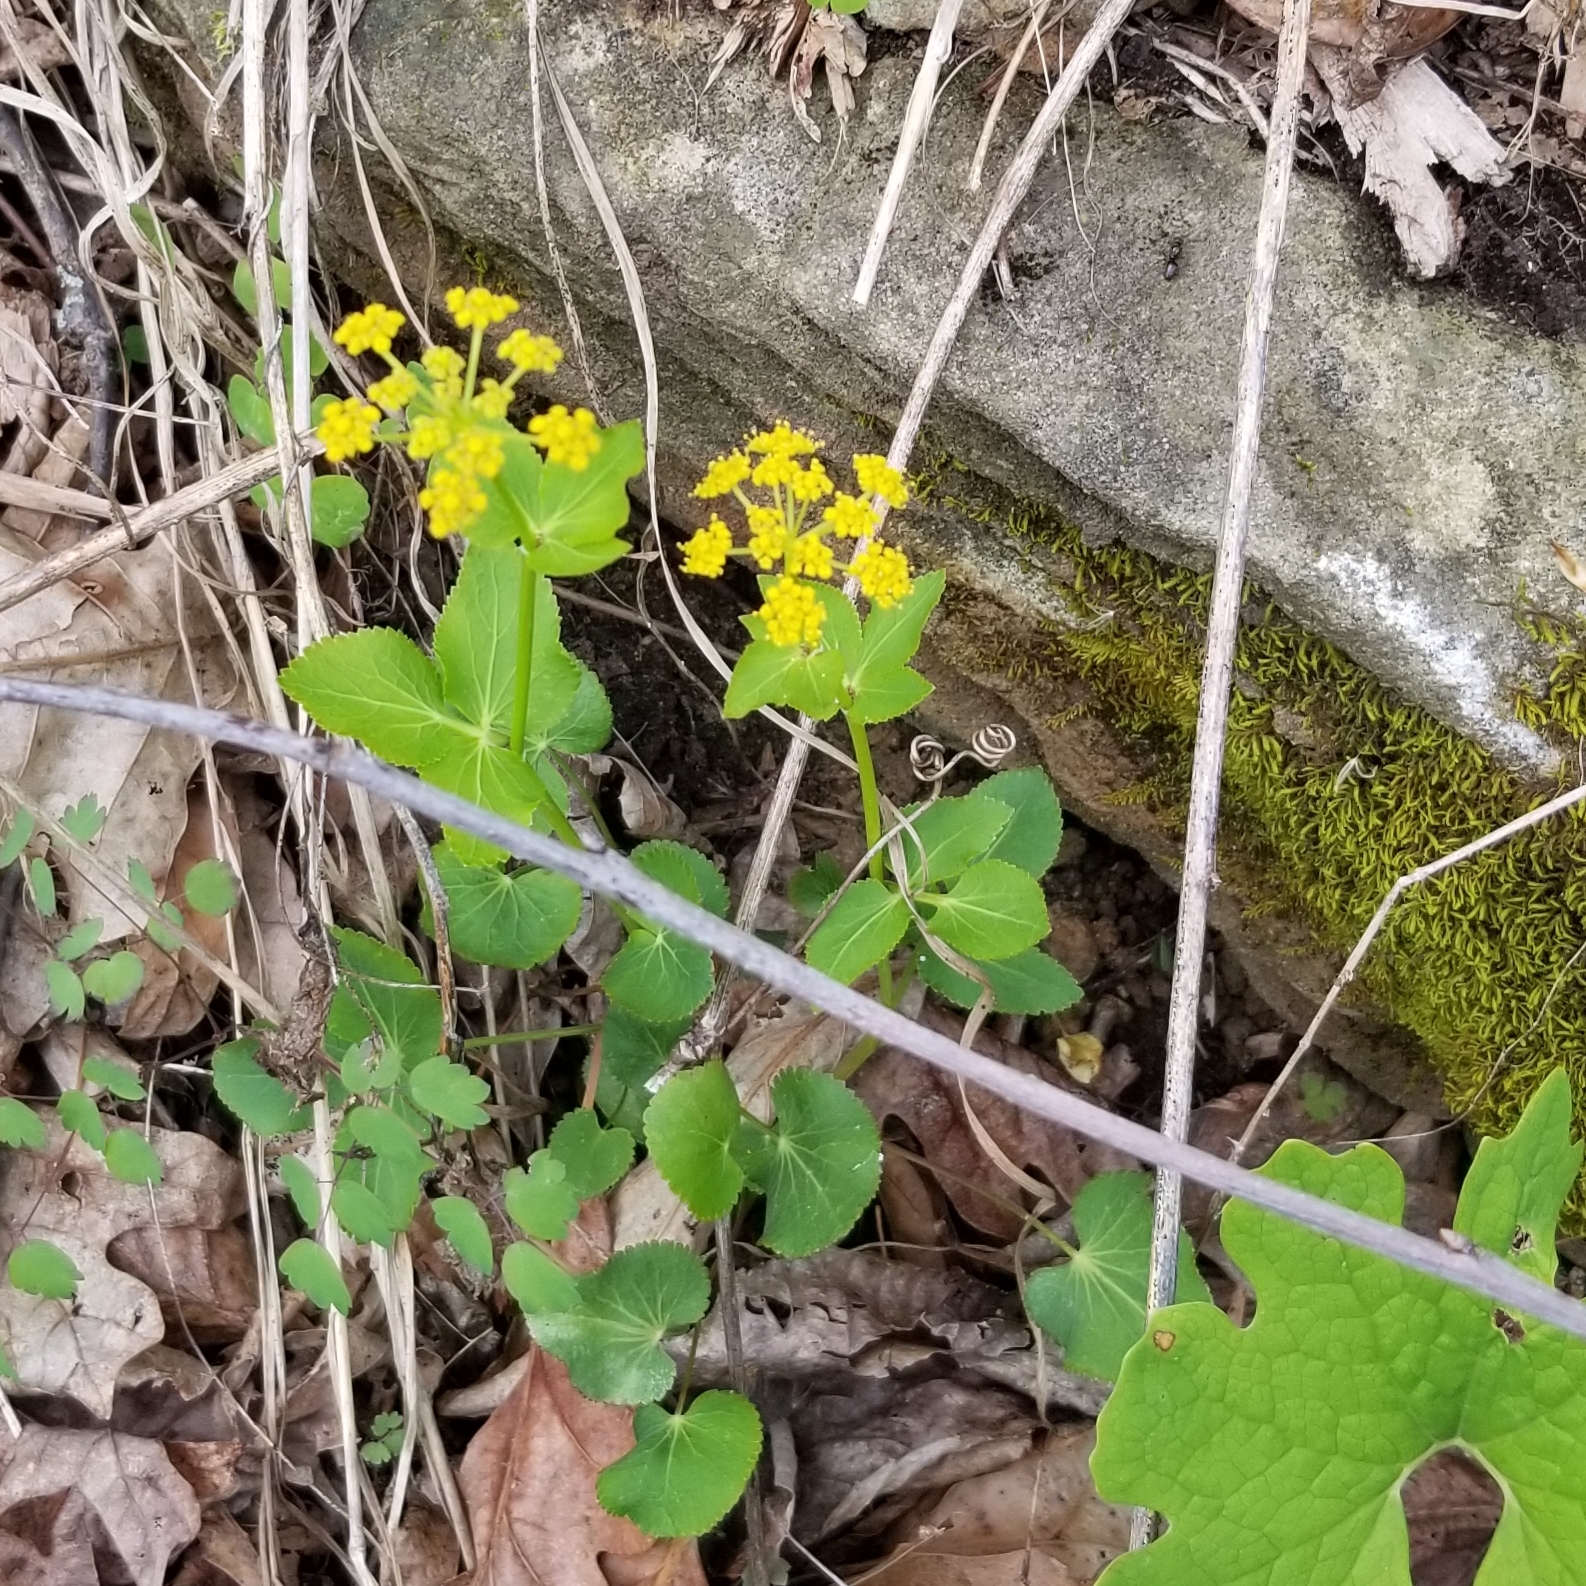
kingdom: Plantae
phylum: Tracheophyta
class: Magnoliopsida
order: Apiales
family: Apiaceae
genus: Zizia
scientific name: Zizia aptera
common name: Heart-leaved alexanders
